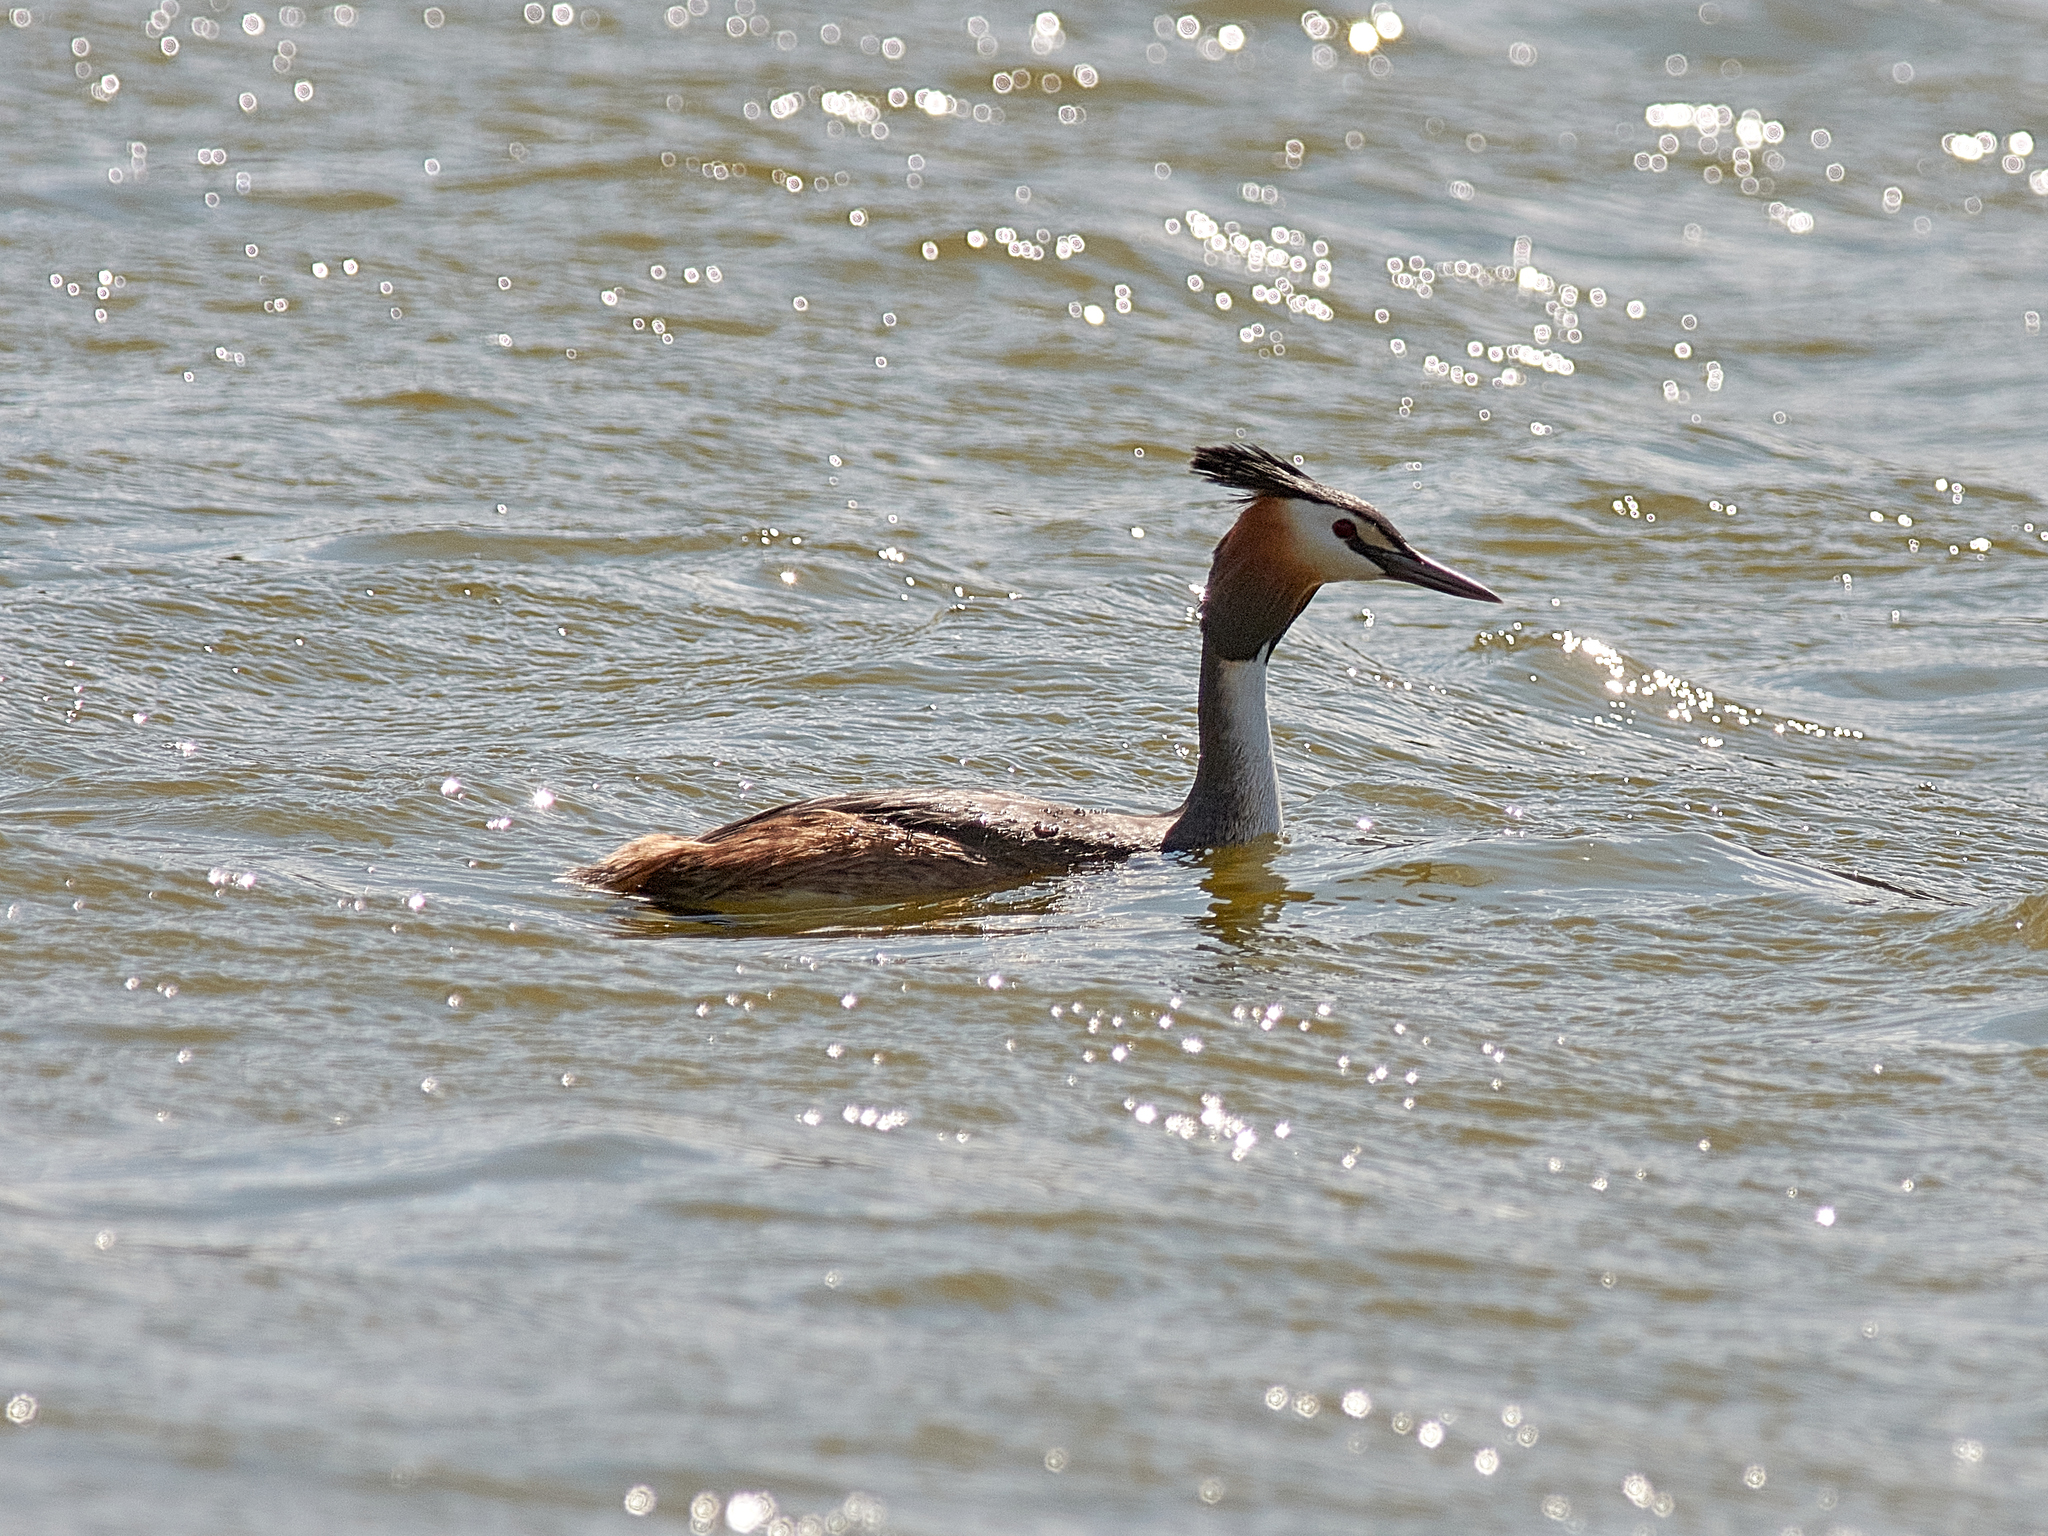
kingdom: Animalia
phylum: Chordata
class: Aves
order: Podicipediformes
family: Podicipedidae
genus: Podiceps
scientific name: Podiceps cristatus
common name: Great crested grebe
